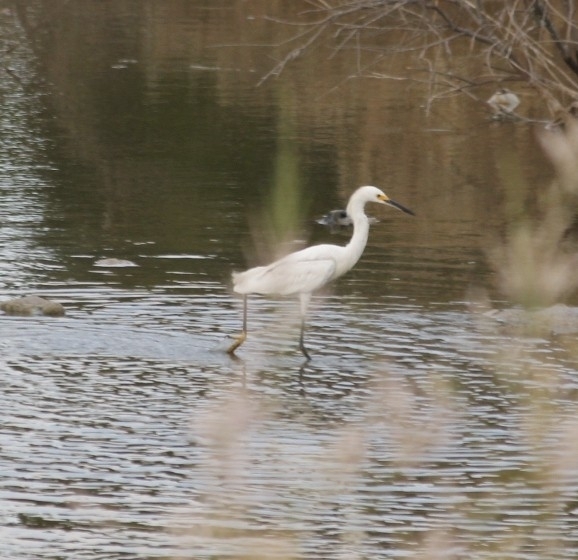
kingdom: Animalia
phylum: Chordata
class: Aves
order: Pelecaniformes
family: Ardeidae
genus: Egretta
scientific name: Egretta thula
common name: Snowy egret
